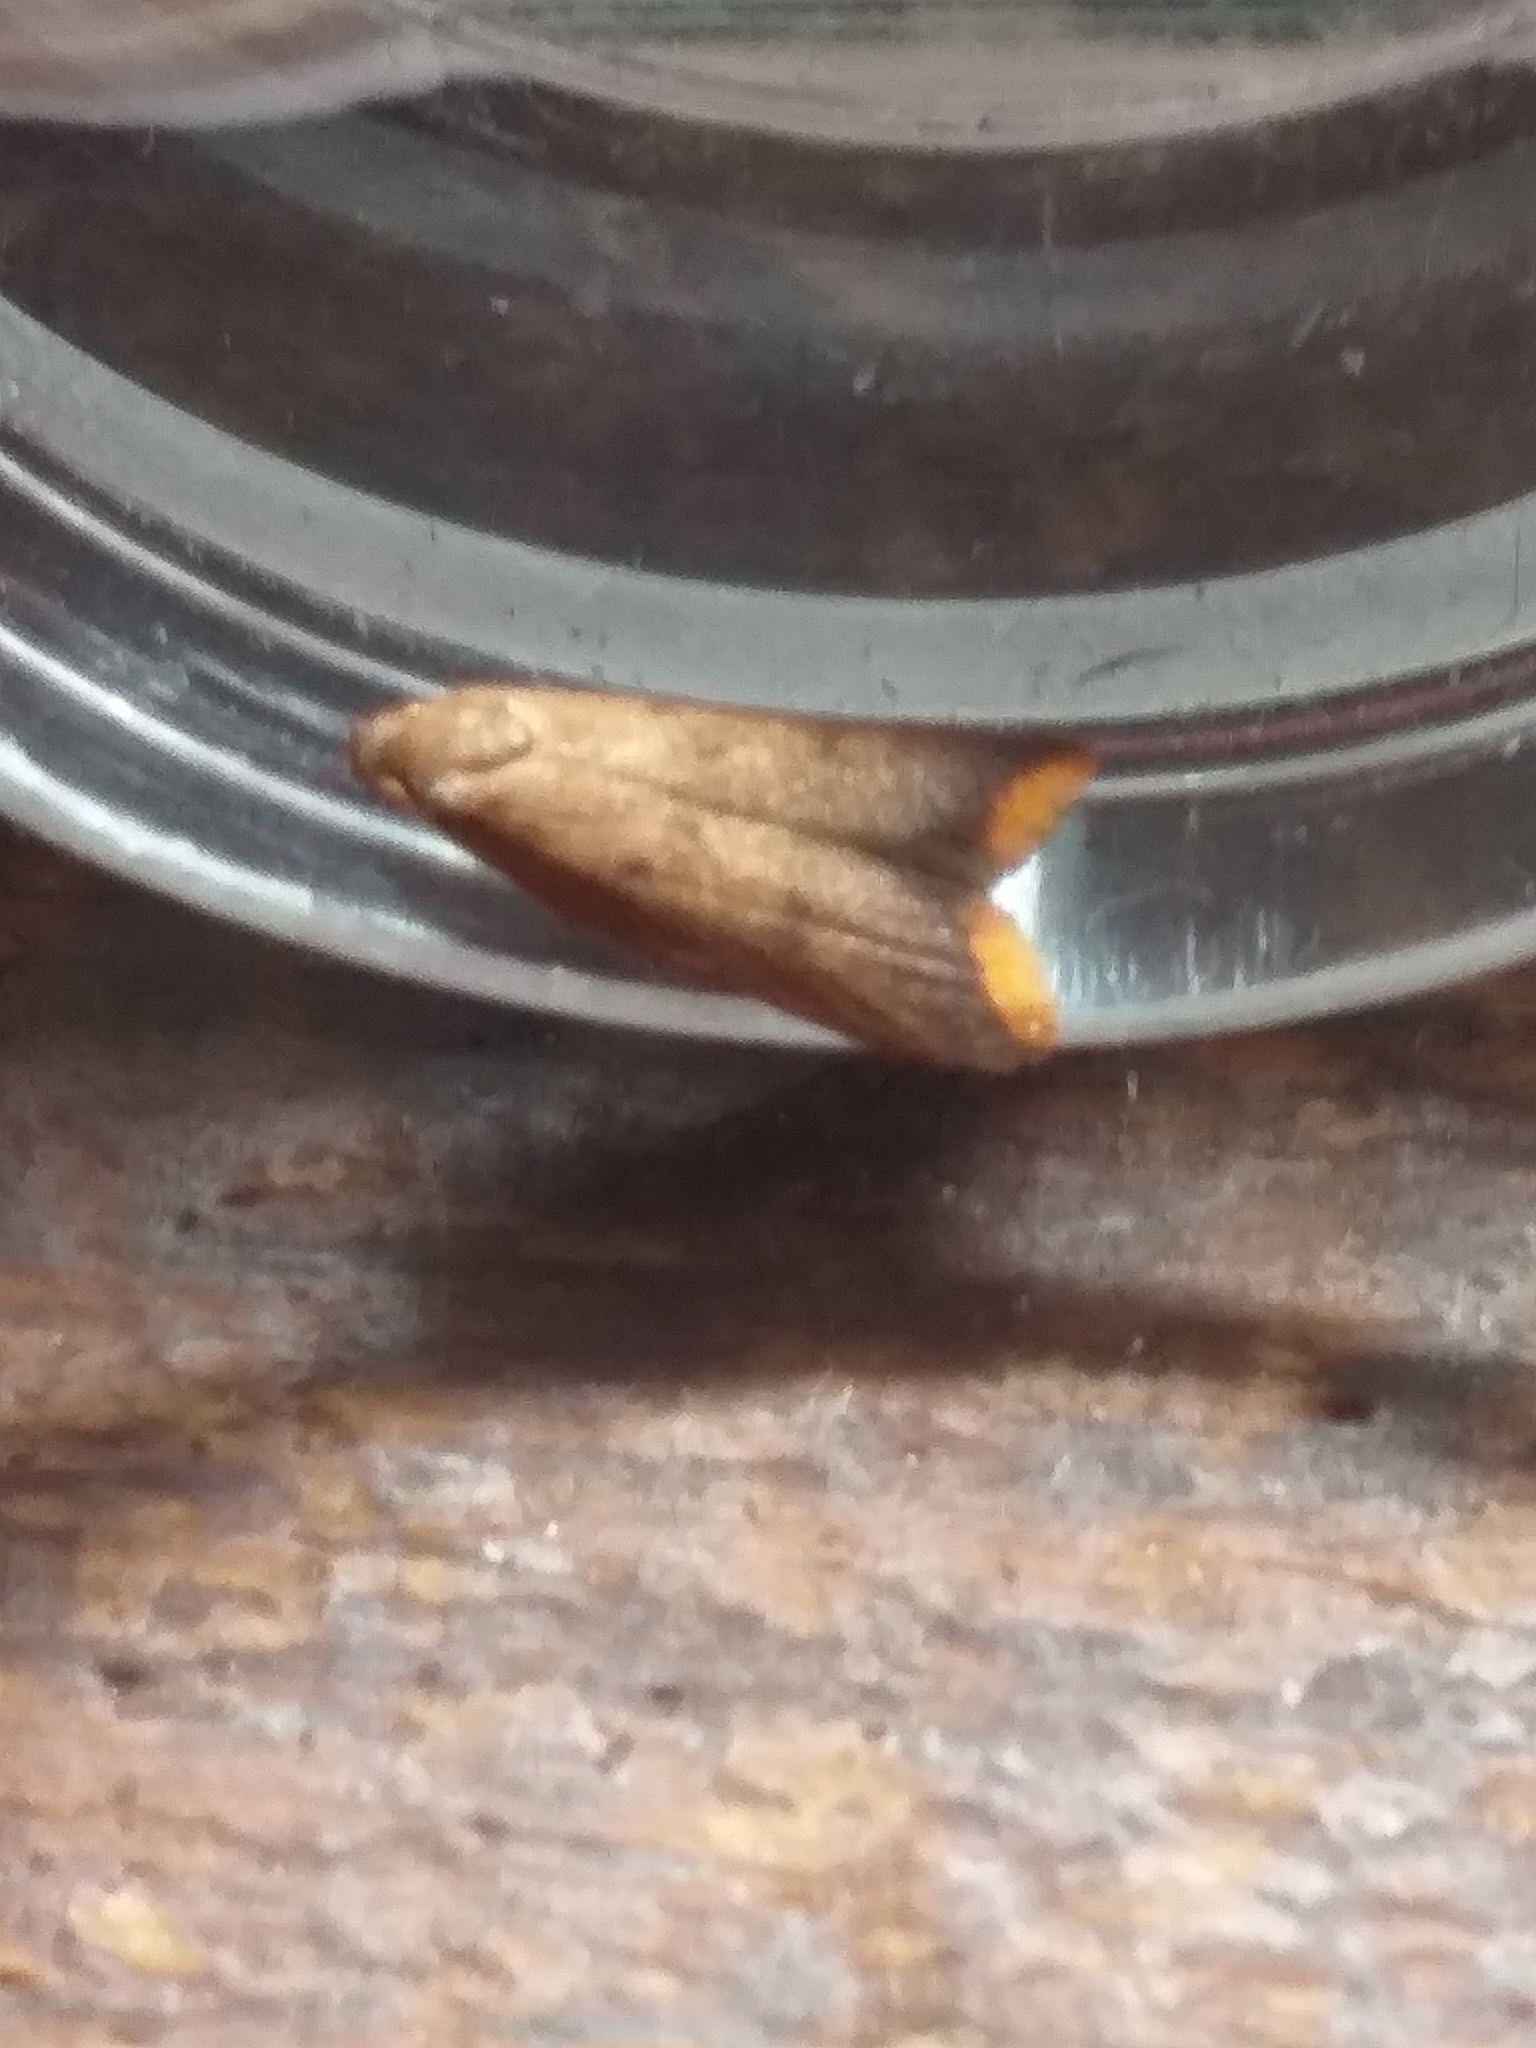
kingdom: Animalia
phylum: Arthropoda
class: Insecta
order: Lepidoptera
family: Oecophoridae
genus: Tachystola
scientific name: Tachystola acroxantha
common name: Ruddy streak
